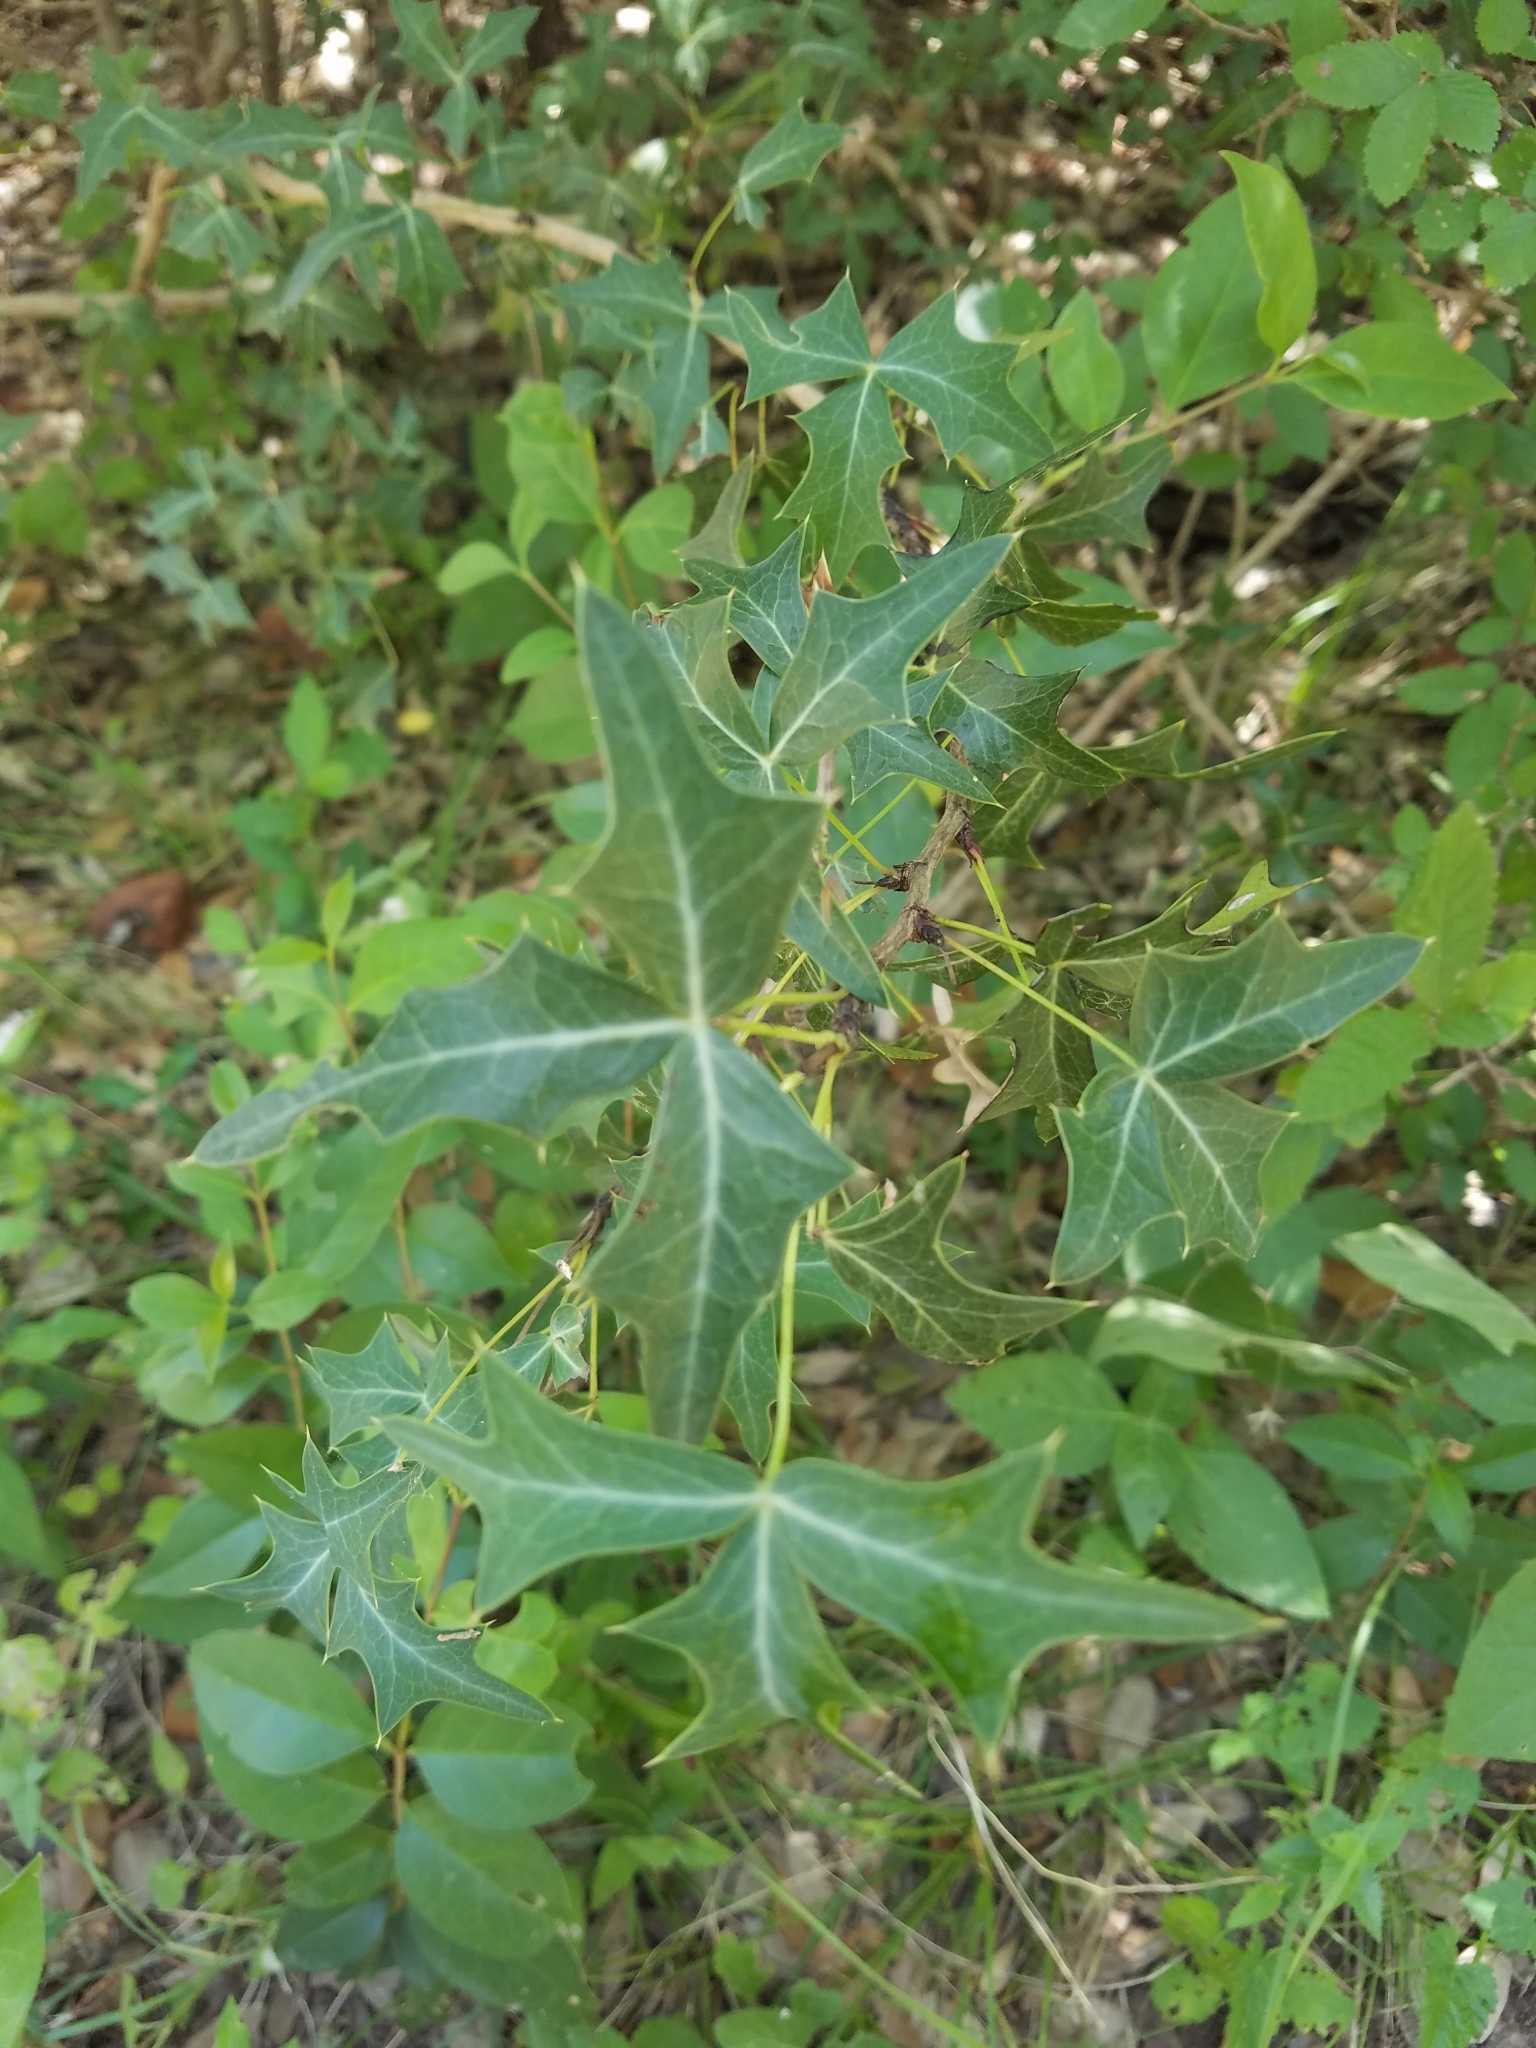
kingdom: Plantae
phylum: Tracheophyta
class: Magnoliopsida
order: Ranunculales
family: Berberidaceae
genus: Alloberberis
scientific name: Alloberberis trifoliolata
